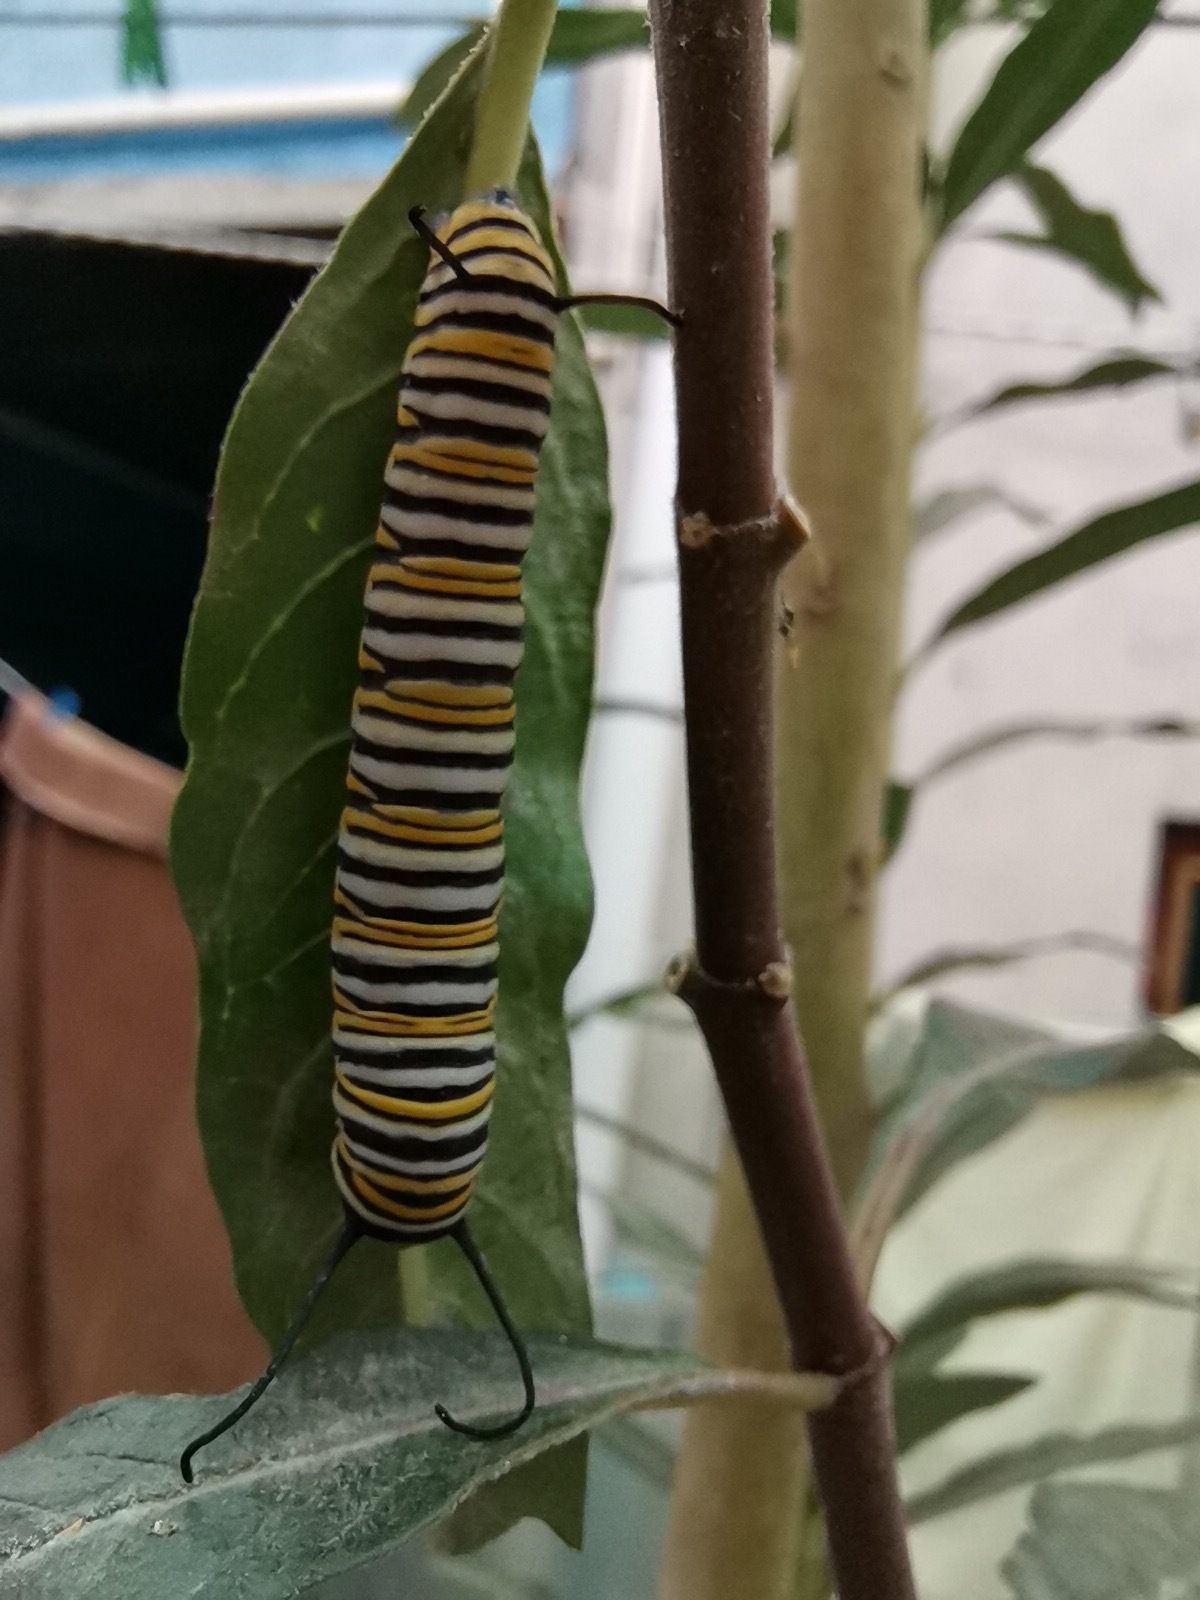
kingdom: Animalia
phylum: Arthropoda
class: Insecta
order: Lepidoptera
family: Nymphalidae
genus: Danaus
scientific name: Danaus plexippus
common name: Monarch
